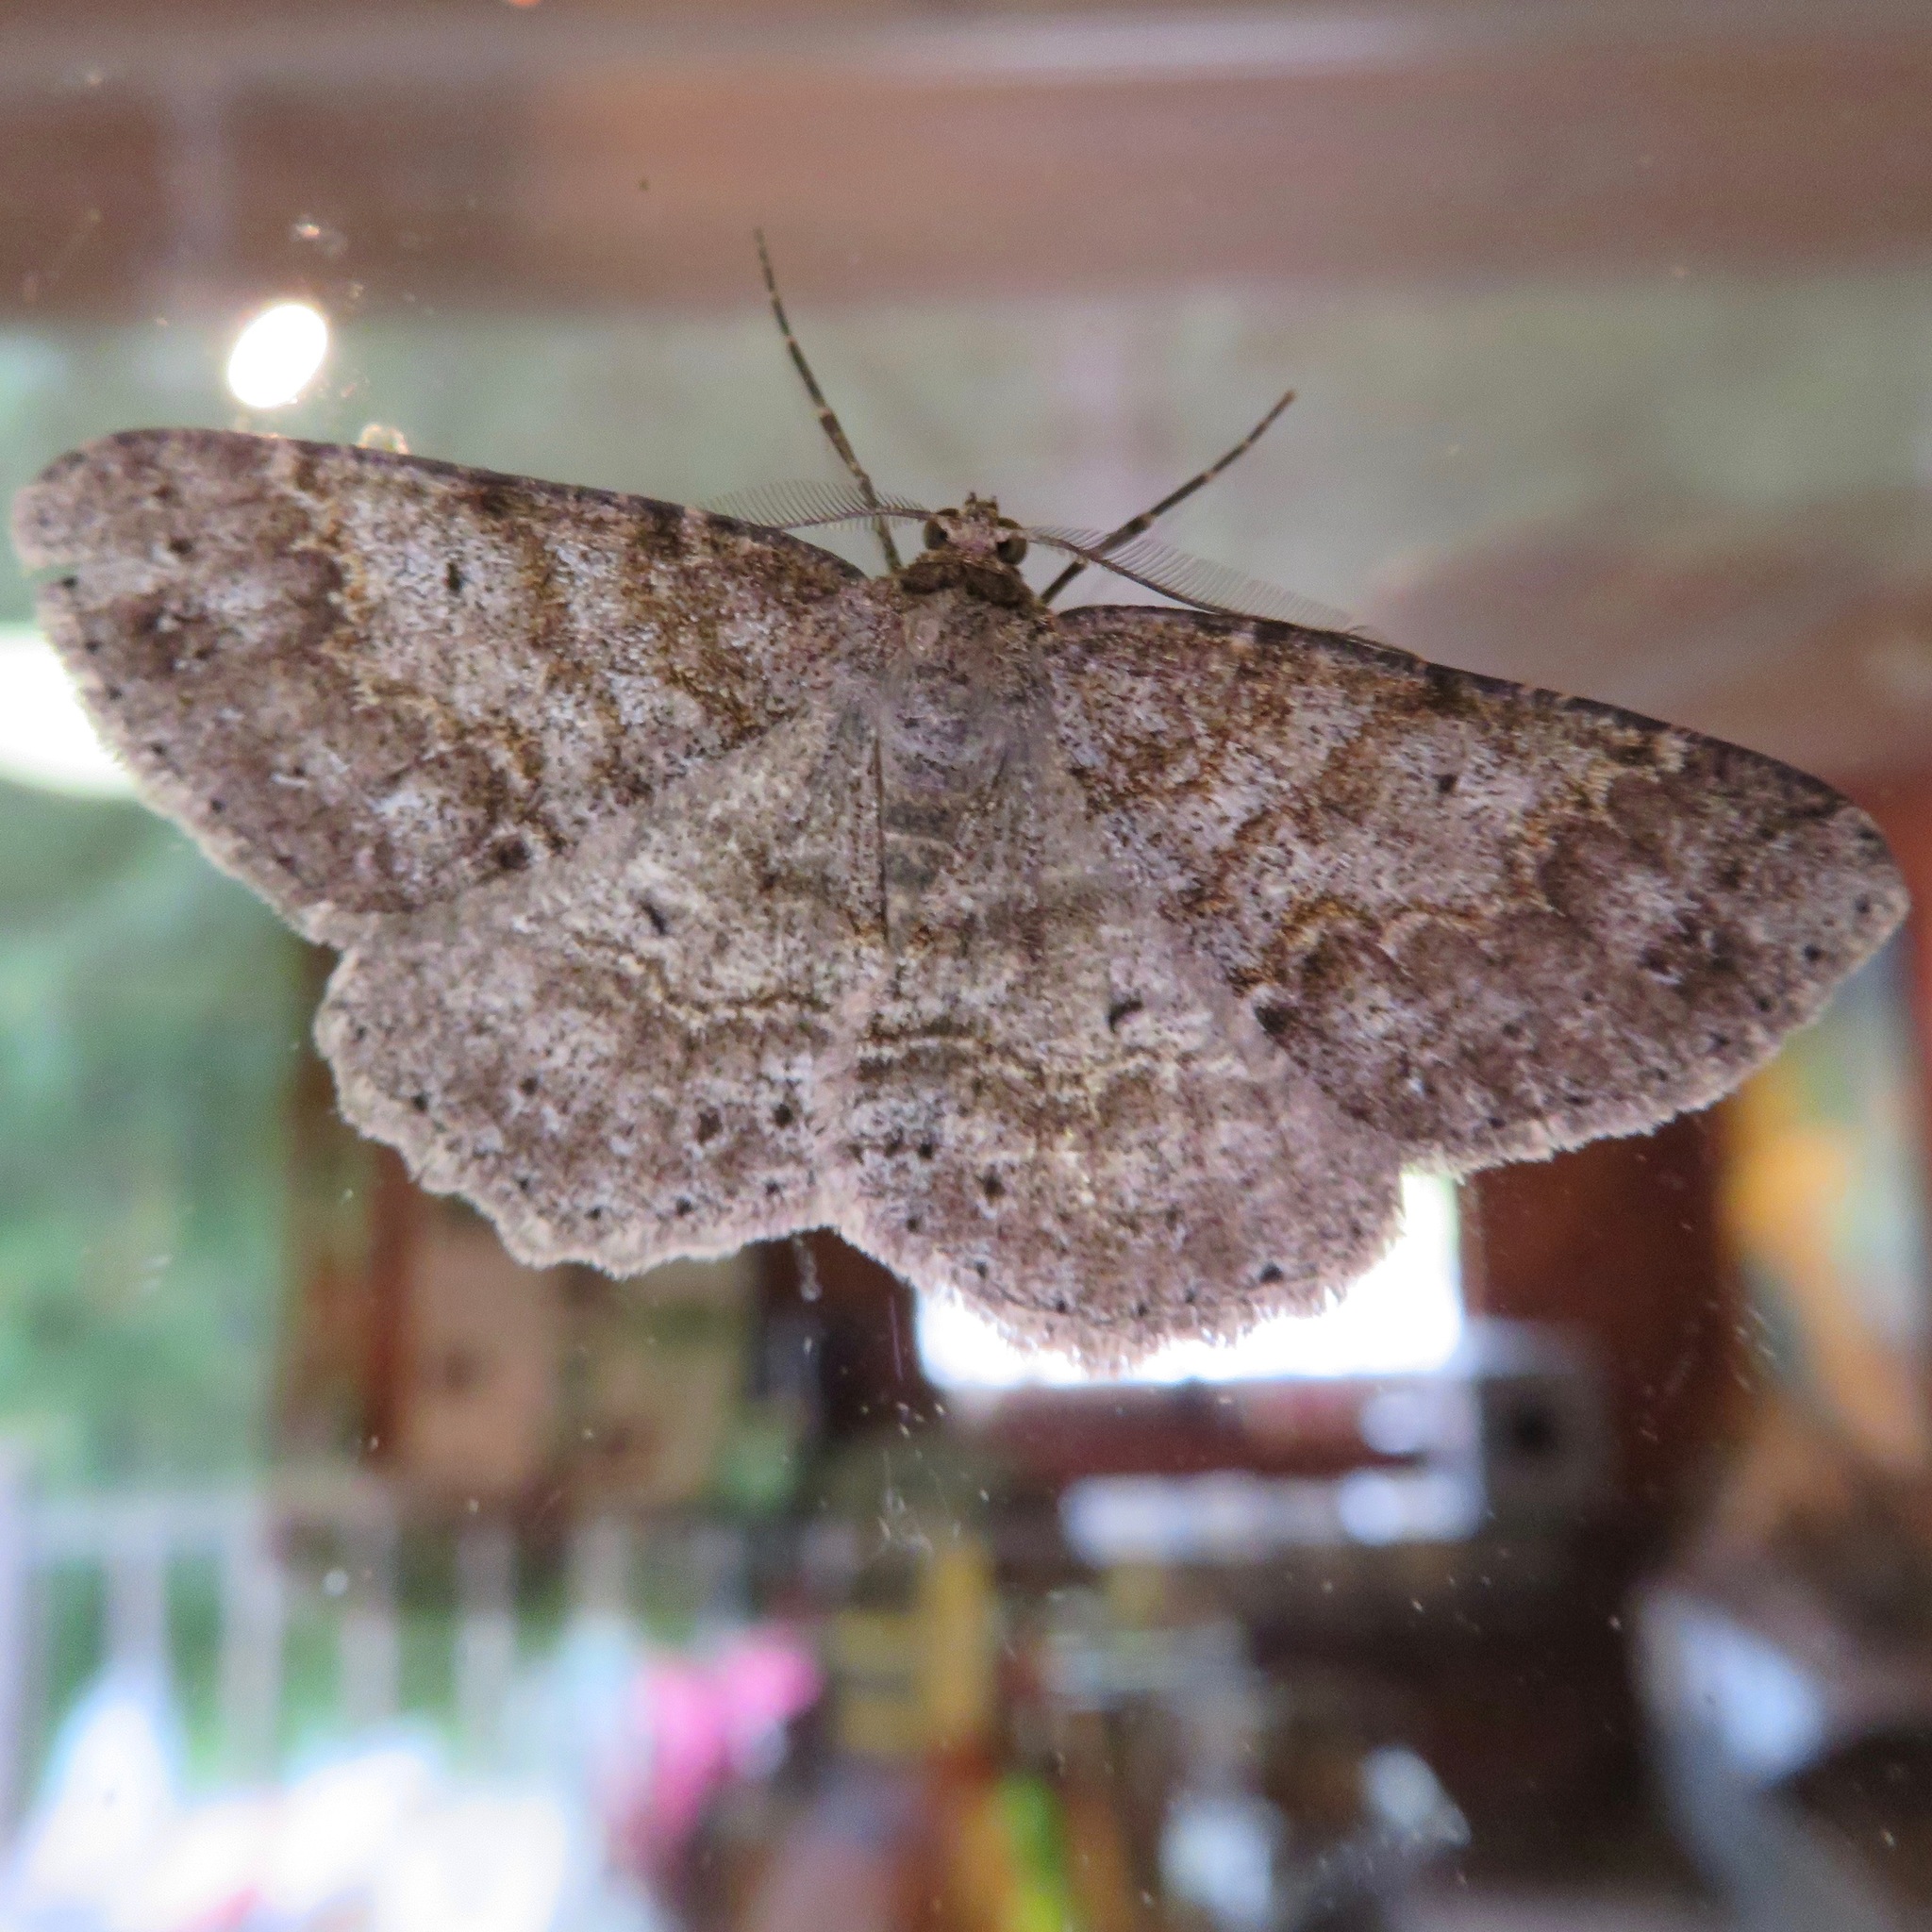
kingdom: Animalia
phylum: Arthropoda
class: Insecta
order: Lepidoptera
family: Geometridae
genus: Melanolophia
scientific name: Melanolophia imitata
